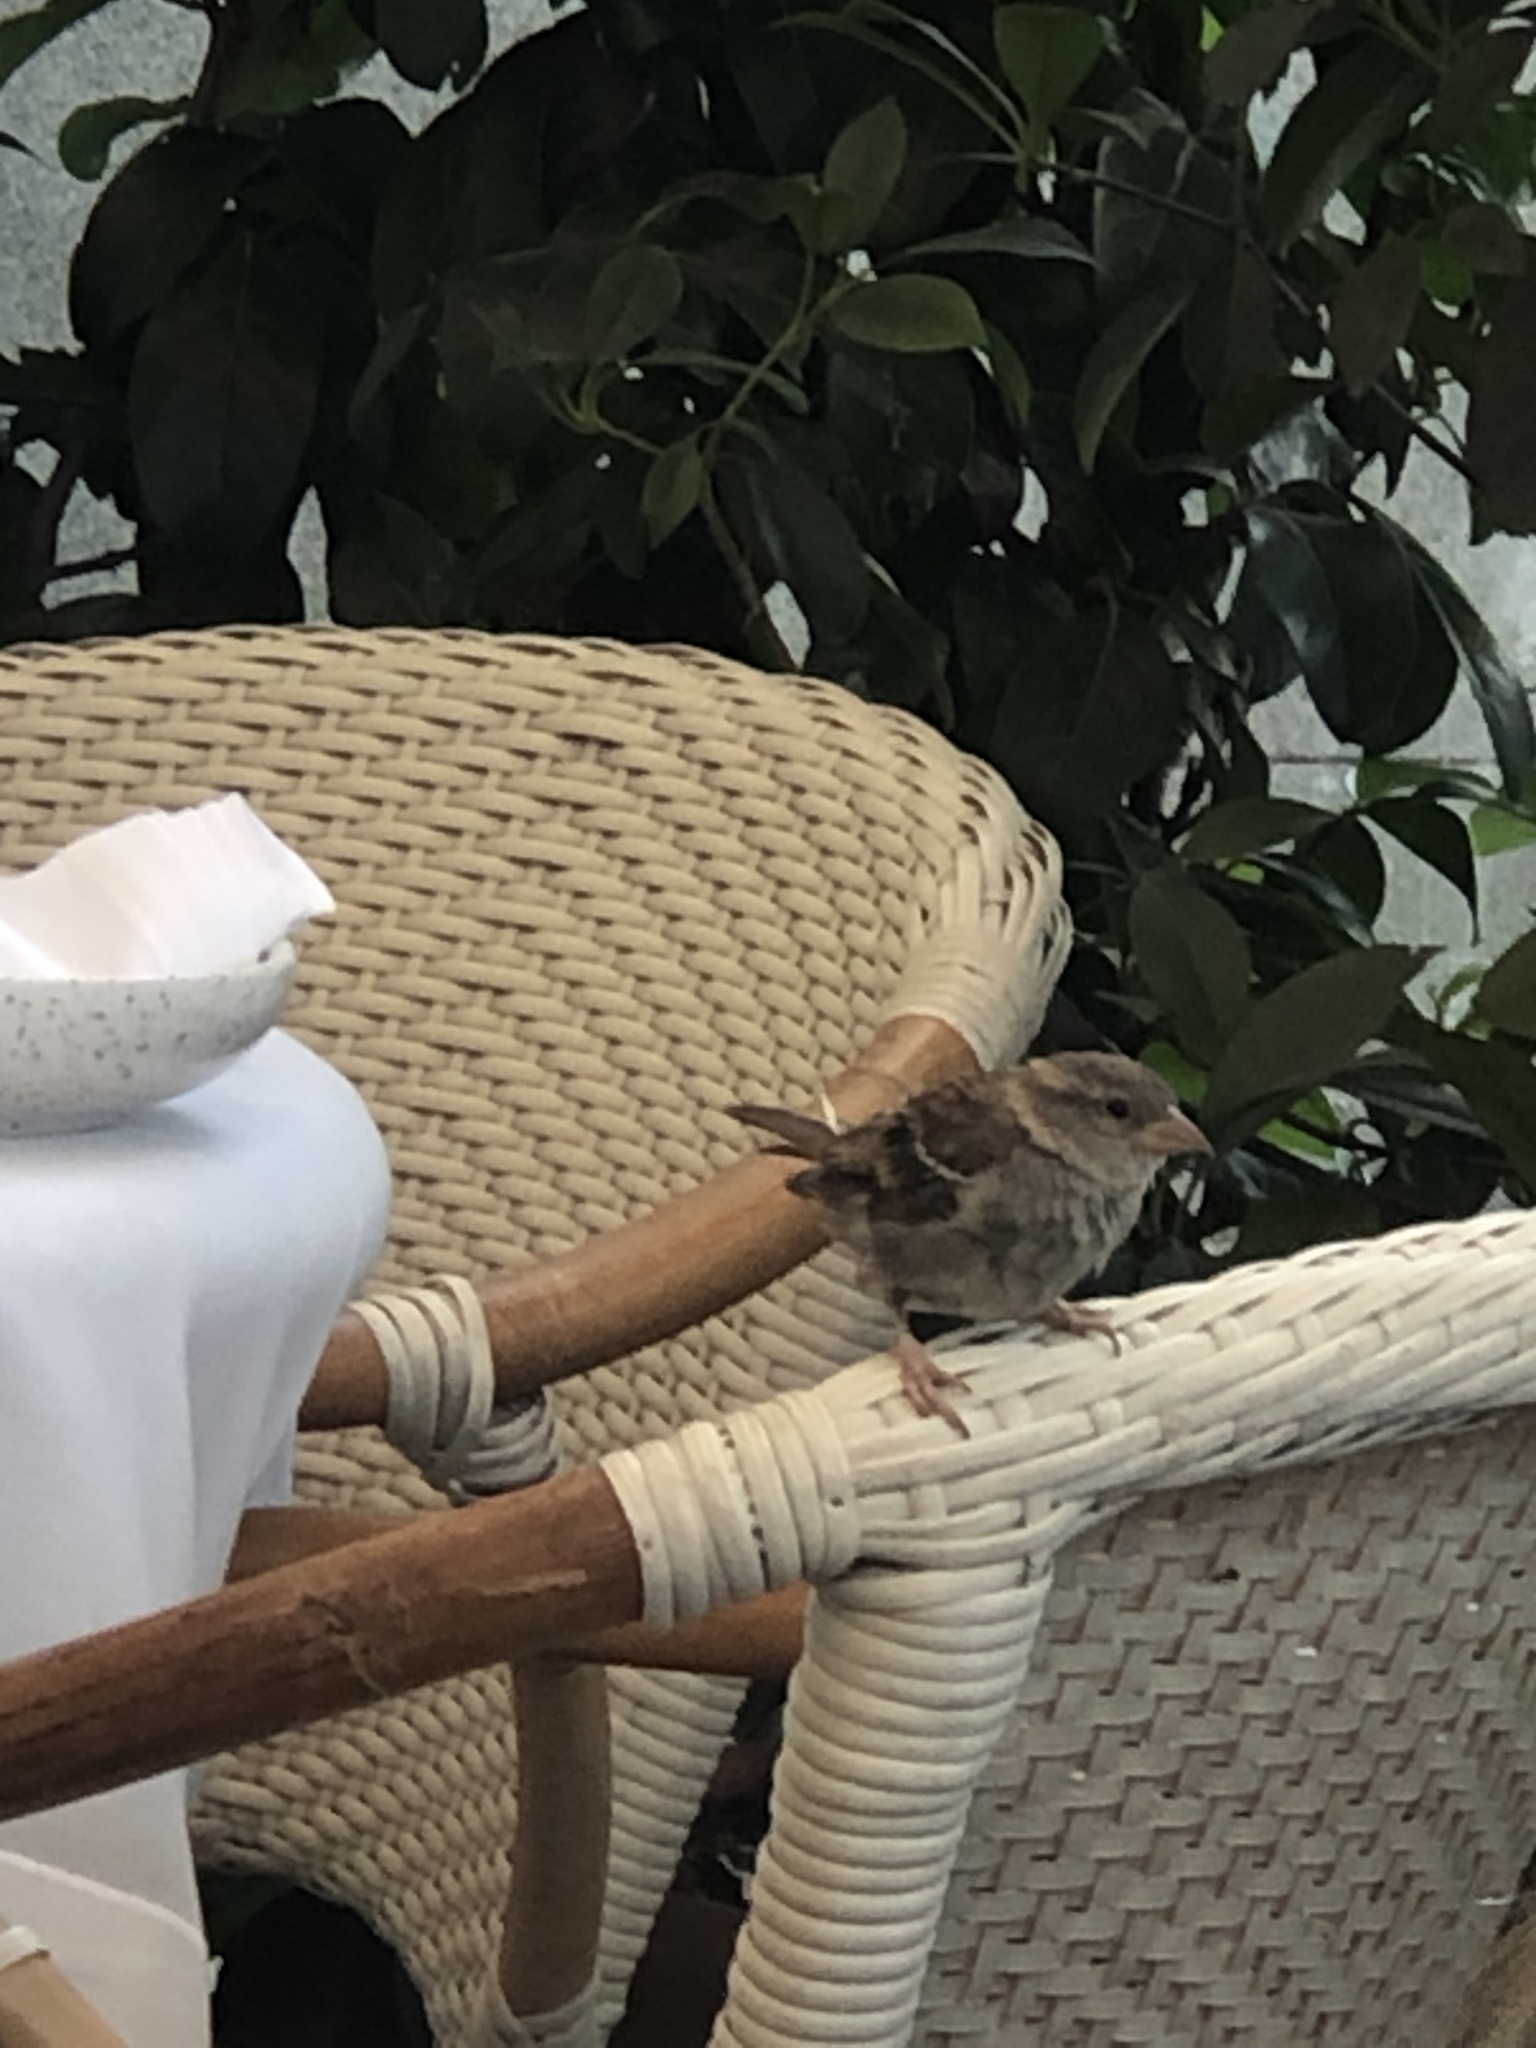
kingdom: Animalia
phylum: Chordata
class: Aves
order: Passeriformes
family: Passeridae
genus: Passer
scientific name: Passer domesticus
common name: House sparrow
